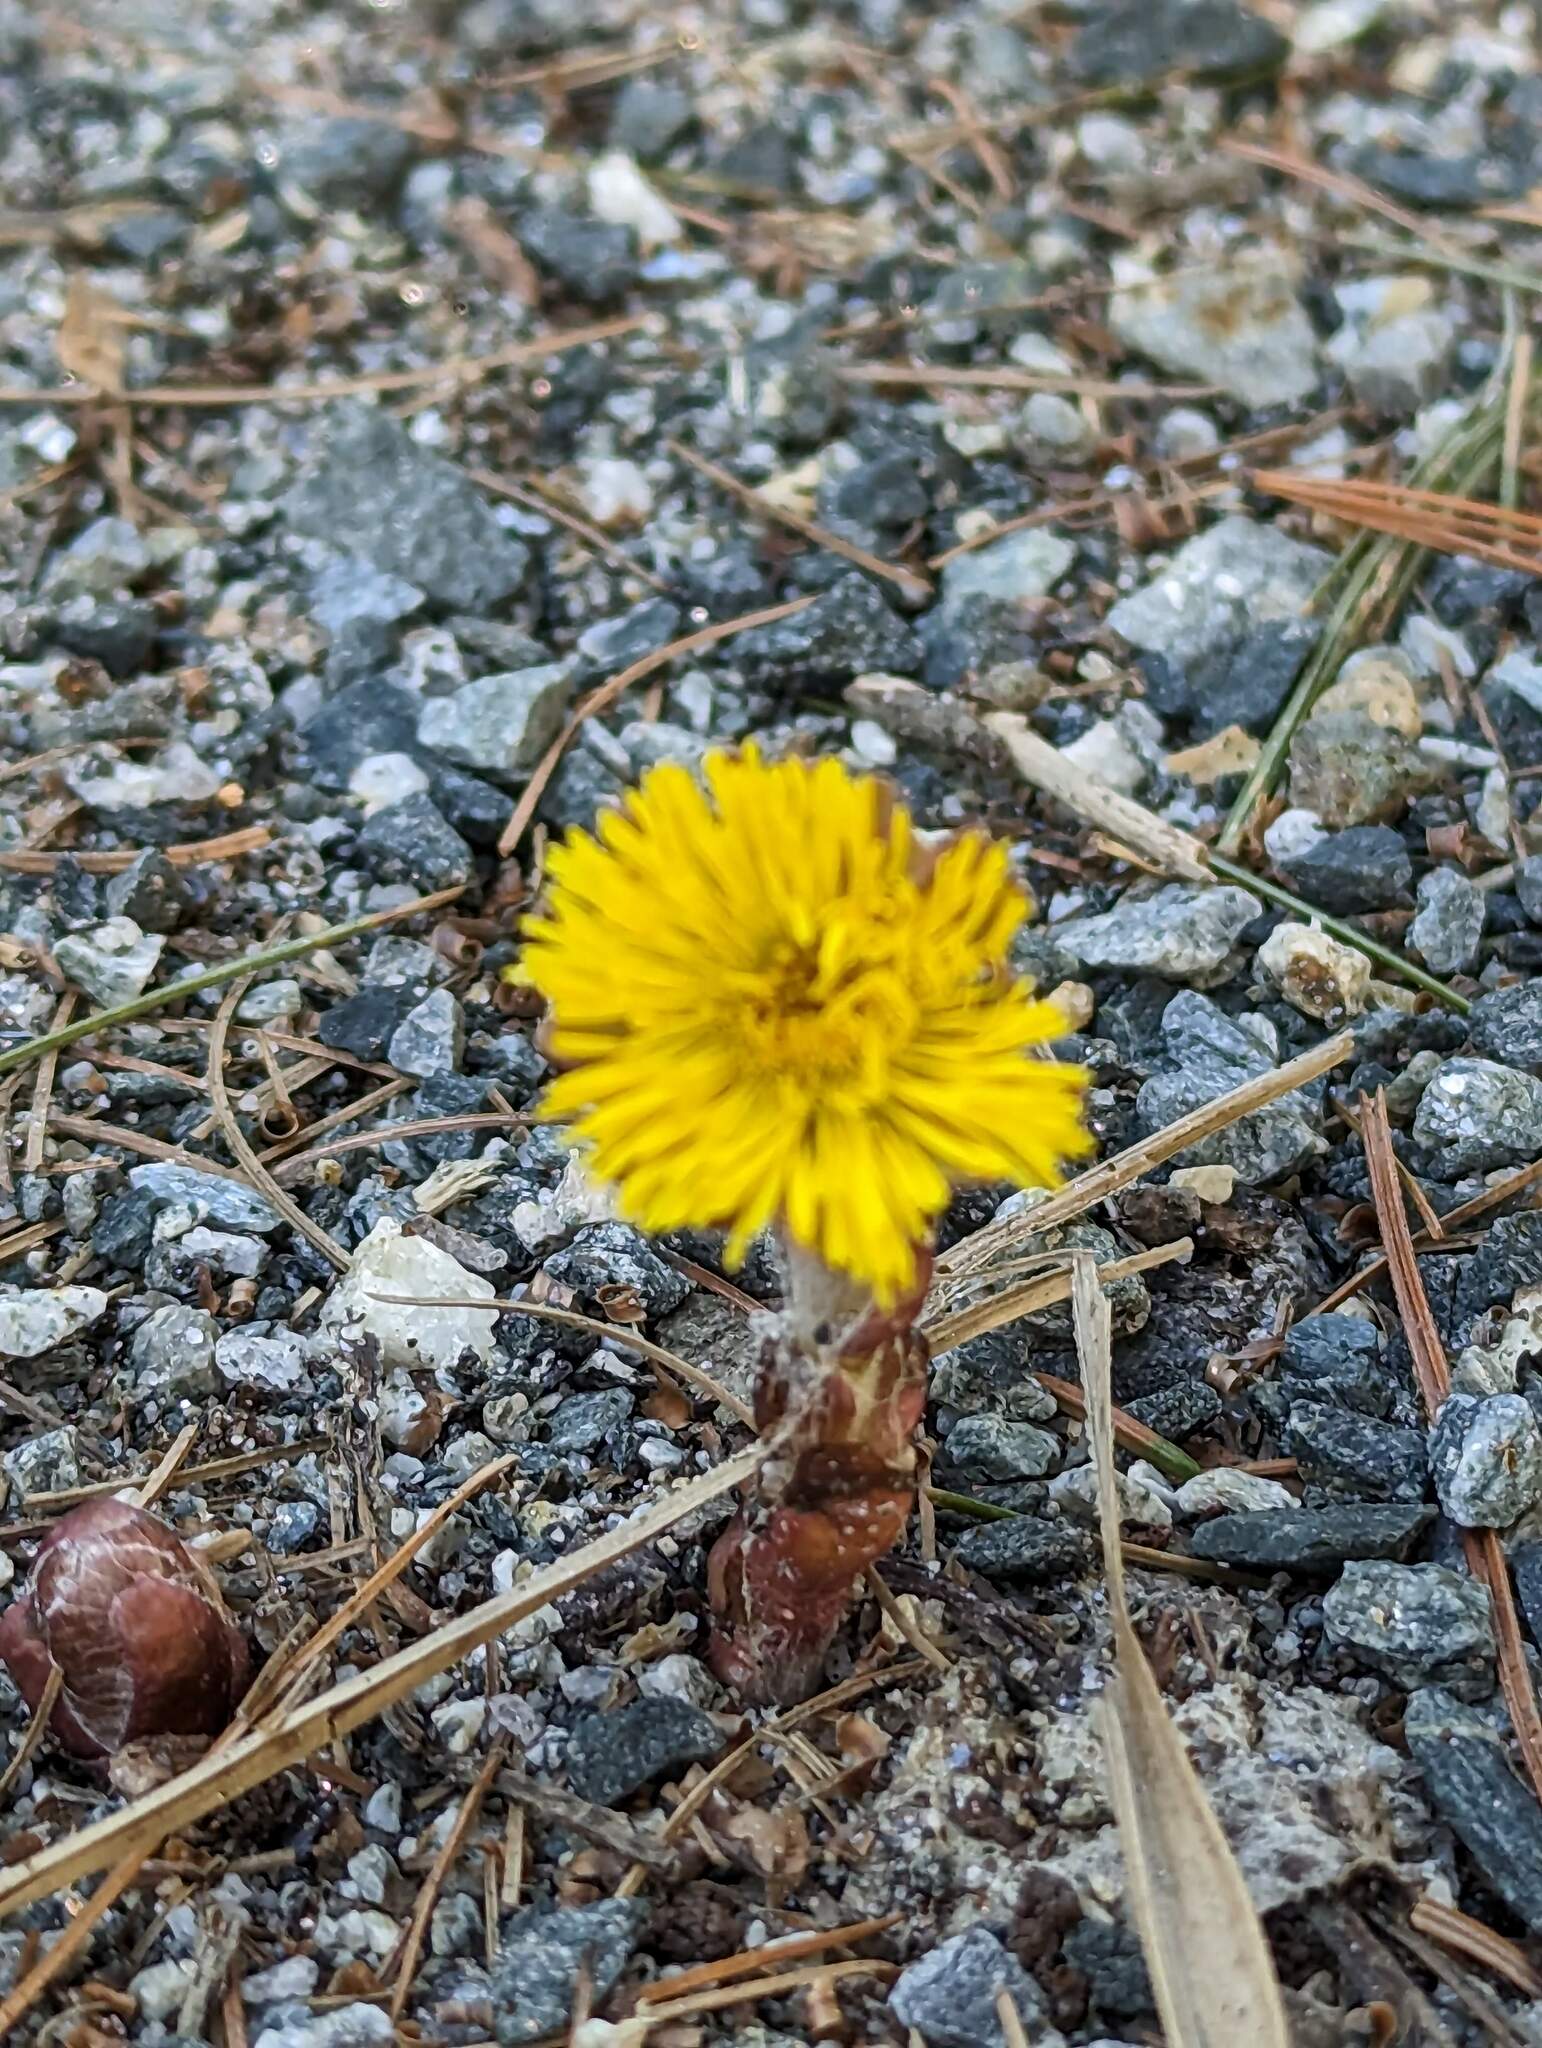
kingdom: Plantae
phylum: Tracheophyta
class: Magnoliopsida
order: Asterales
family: Asteraceae
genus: Tussilago
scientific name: Tussilago farfara
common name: Coltsfoot
